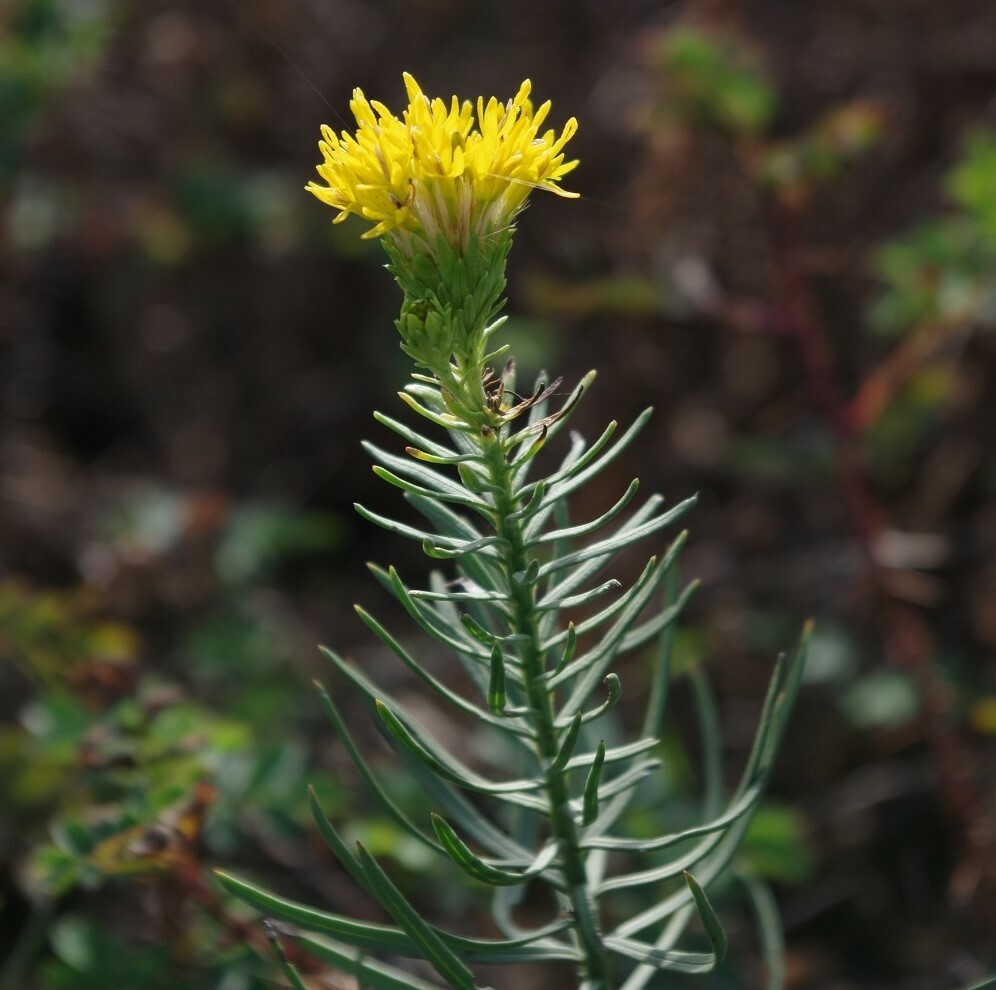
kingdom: Plantae
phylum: Tracheophyta
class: Magnoliopsida
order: Asterales
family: Asteraceae
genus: Galatella
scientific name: Galatella linosyris
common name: Goldilocks aster
